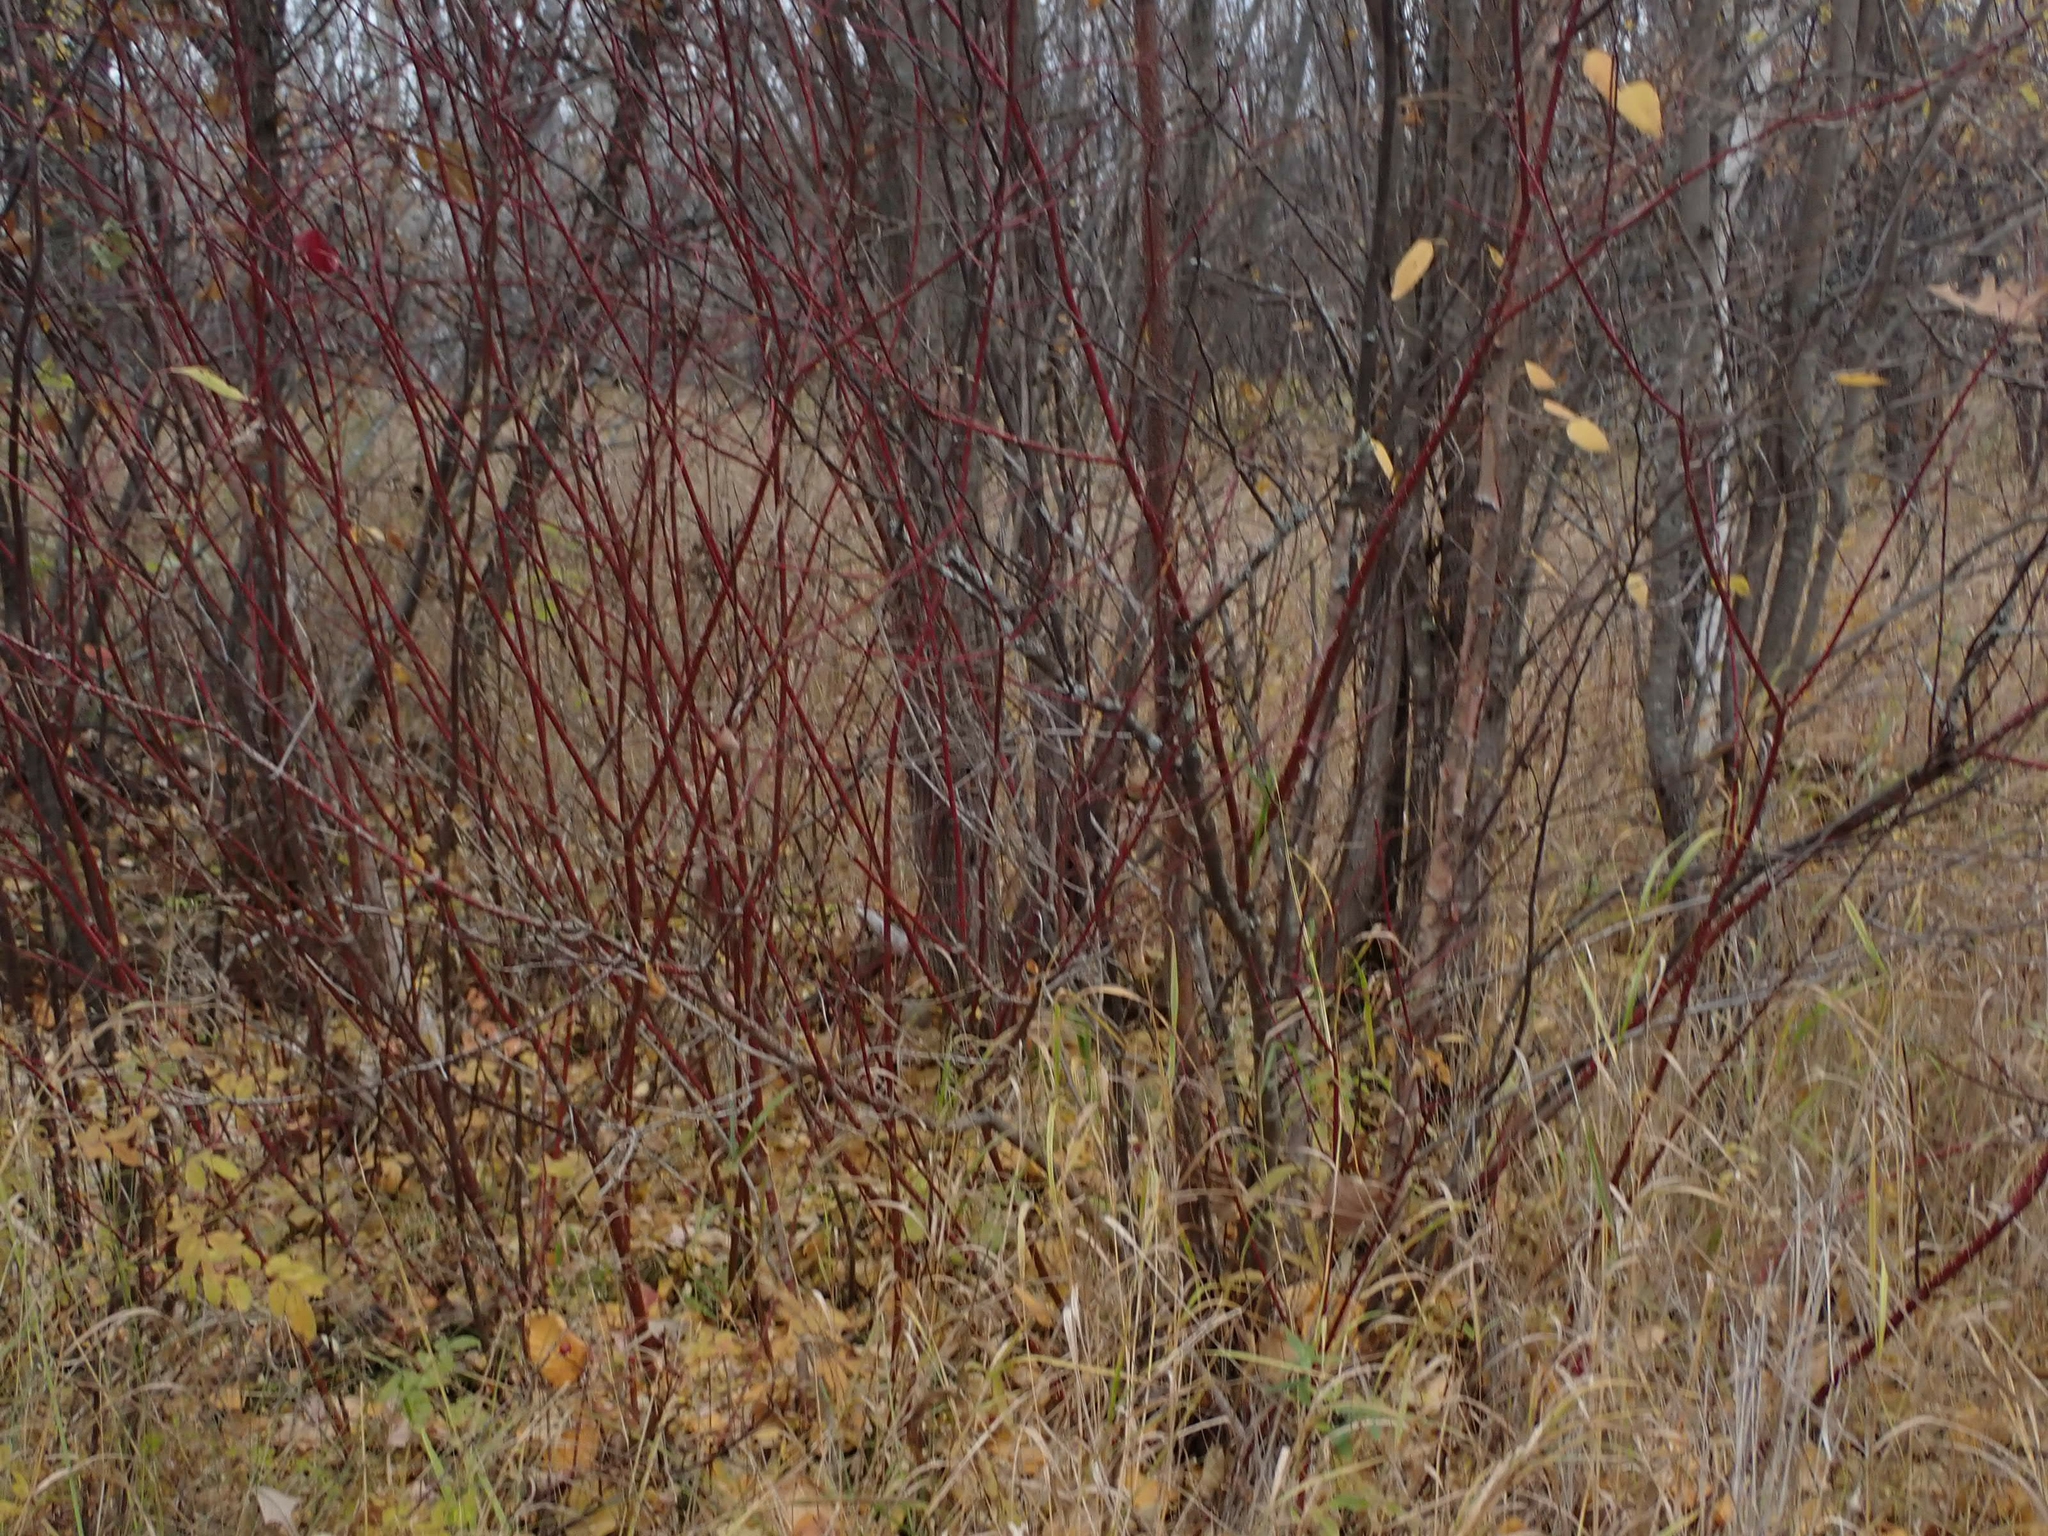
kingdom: Plantae
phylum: Tracheophyta
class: Magnoliopsida
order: Cornales
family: Cornaceae
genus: Cornus
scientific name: Cornus sericea
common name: Red-osier dogwood
